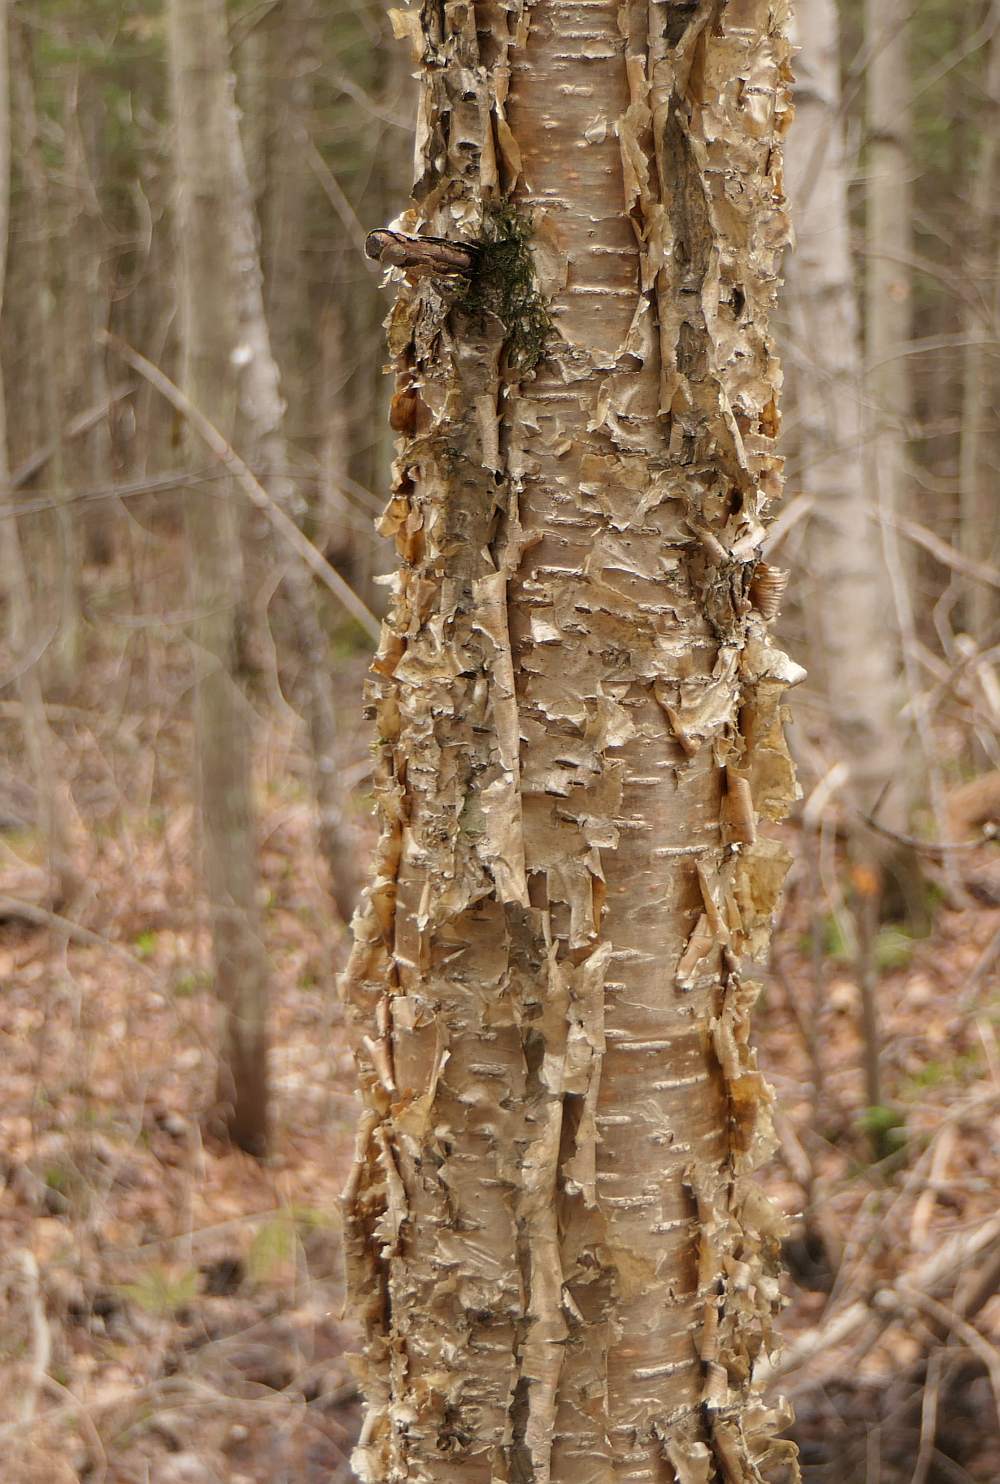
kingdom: Plantae
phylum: Tracheophyta
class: Magnoliopsida
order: Fagales
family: Betulaceae
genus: Betula
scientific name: Betula alleghaniensis
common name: Yellow birch
